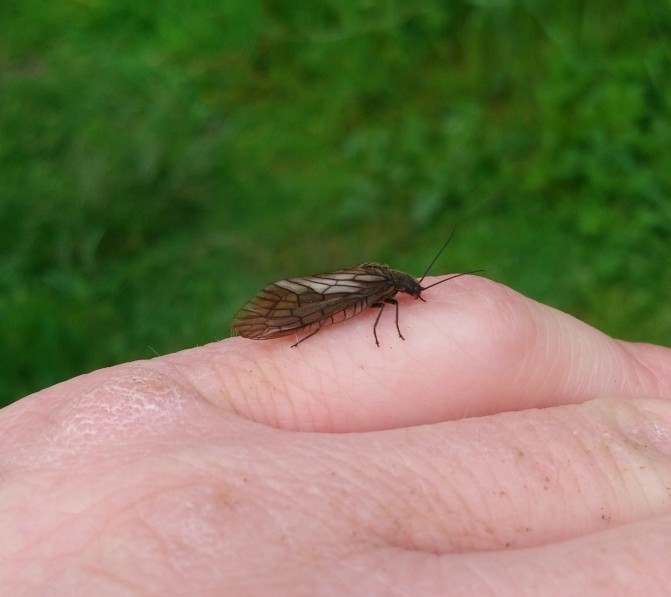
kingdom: Animalia
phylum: Arthropoda
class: Insecta
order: Megaloptera
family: Sialidae
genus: Sialis
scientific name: Sialis
